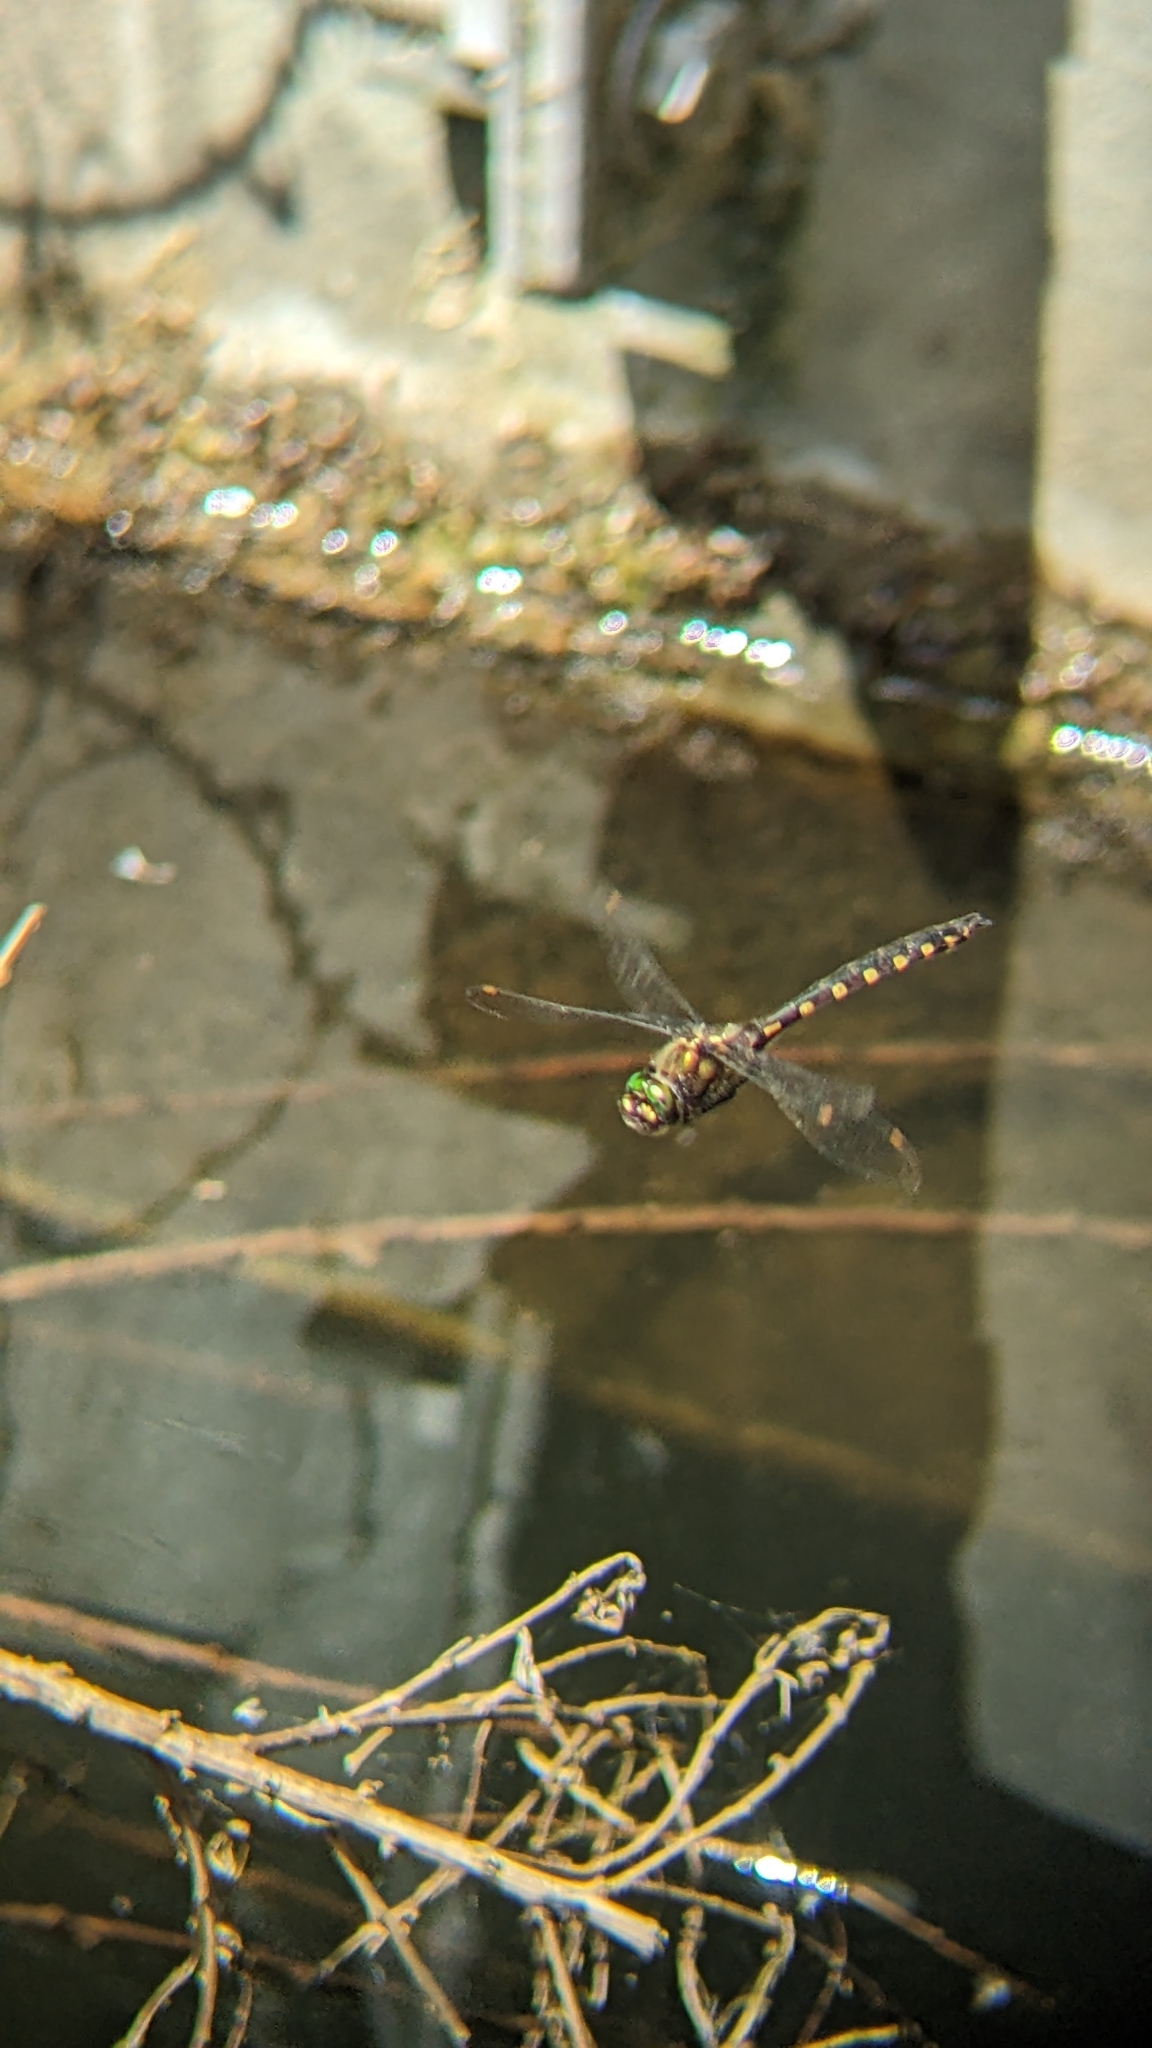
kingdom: Animalia
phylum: Arthropoda
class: Insecta
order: Odonata
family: Corduliidae
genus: Procordulia
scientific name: Procordulia grayi
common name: Yellow spotted dragonfly
